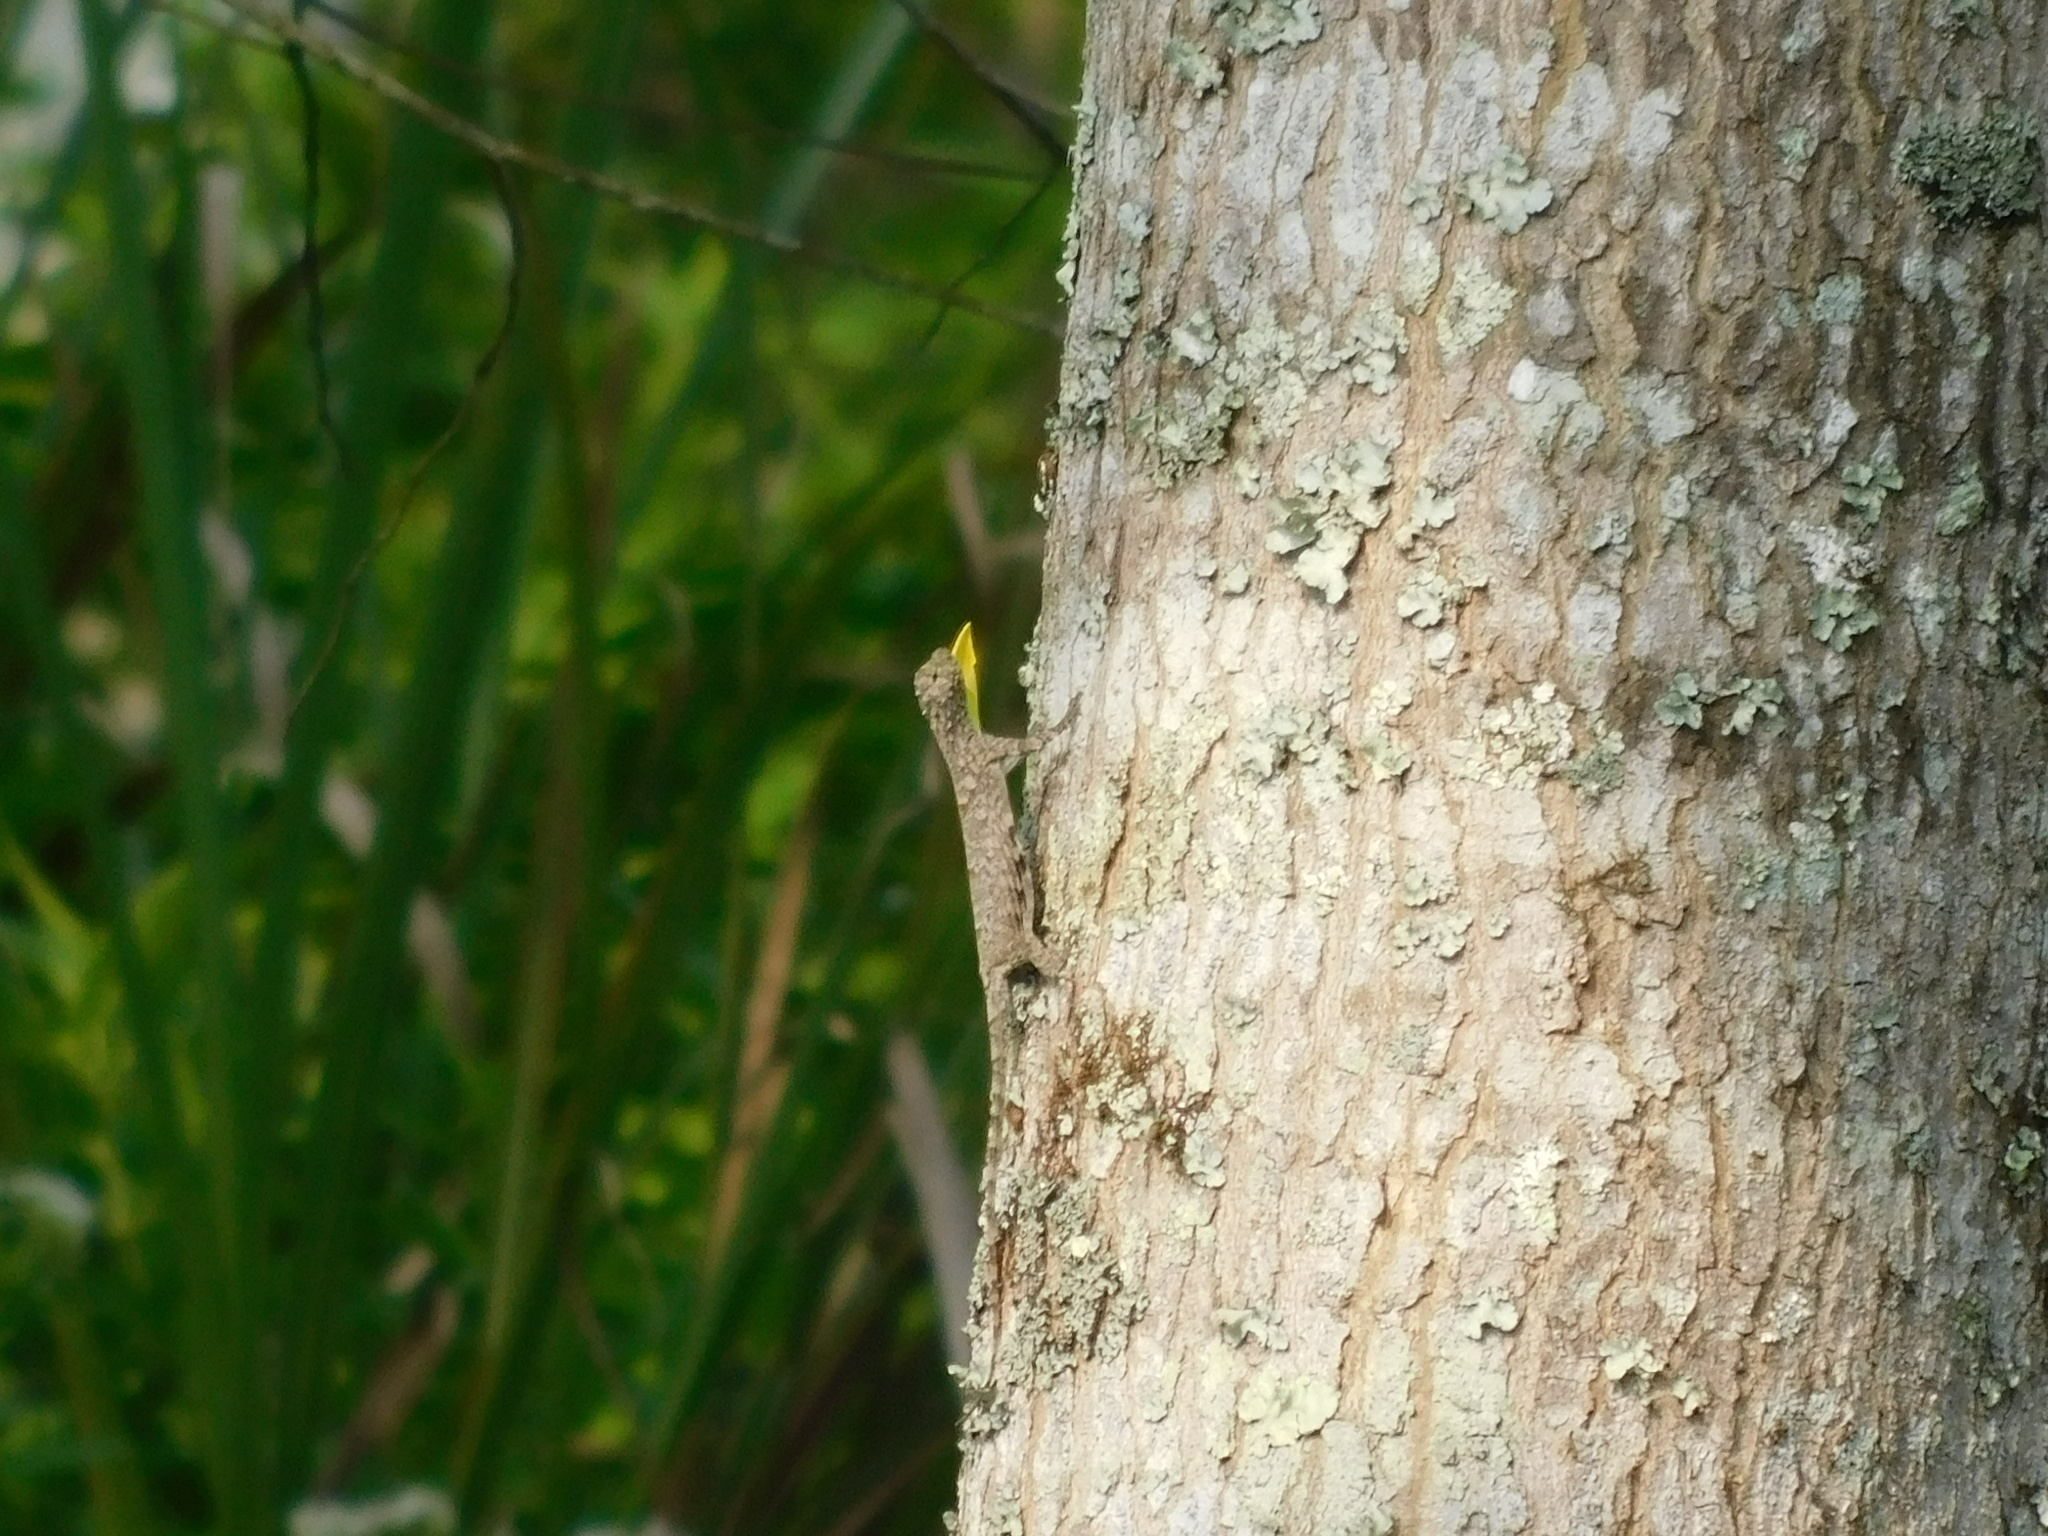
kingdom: Animalia
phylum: Chordata
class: Squamata
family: Agamidae
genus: Draco
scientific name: Draco volans
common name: Common flying dragon
